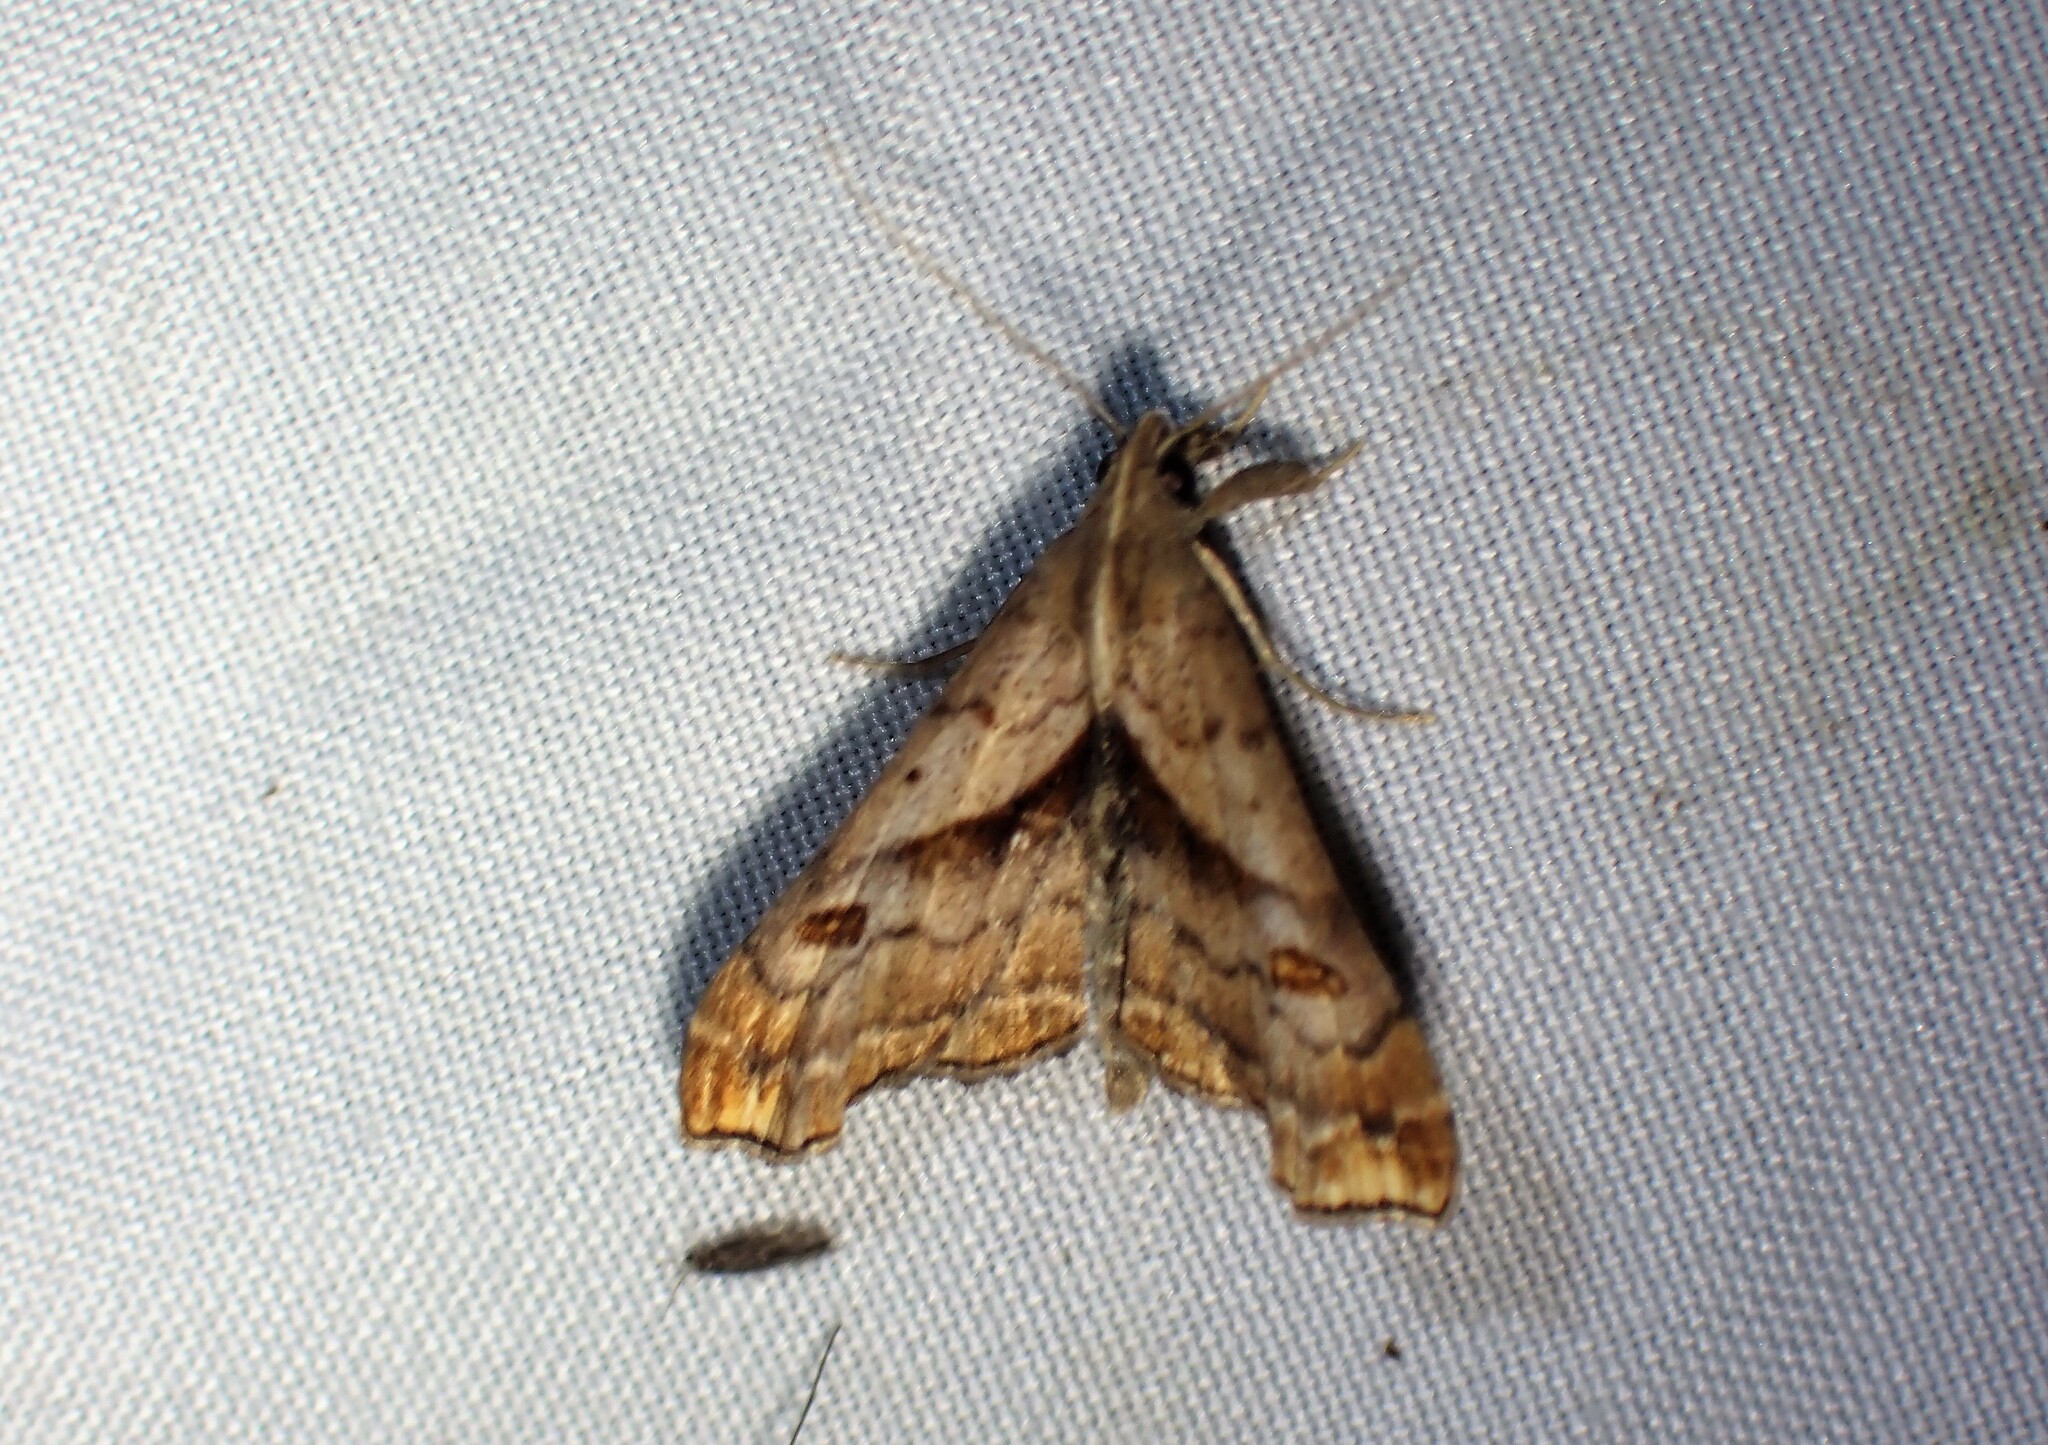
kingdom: Animalia
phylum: Arthropoda
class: Insecta
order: Lepidoptera
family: Erebidae
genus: Palthis
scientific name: Palthis angulalis
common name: Dark-spotted palthis moth
